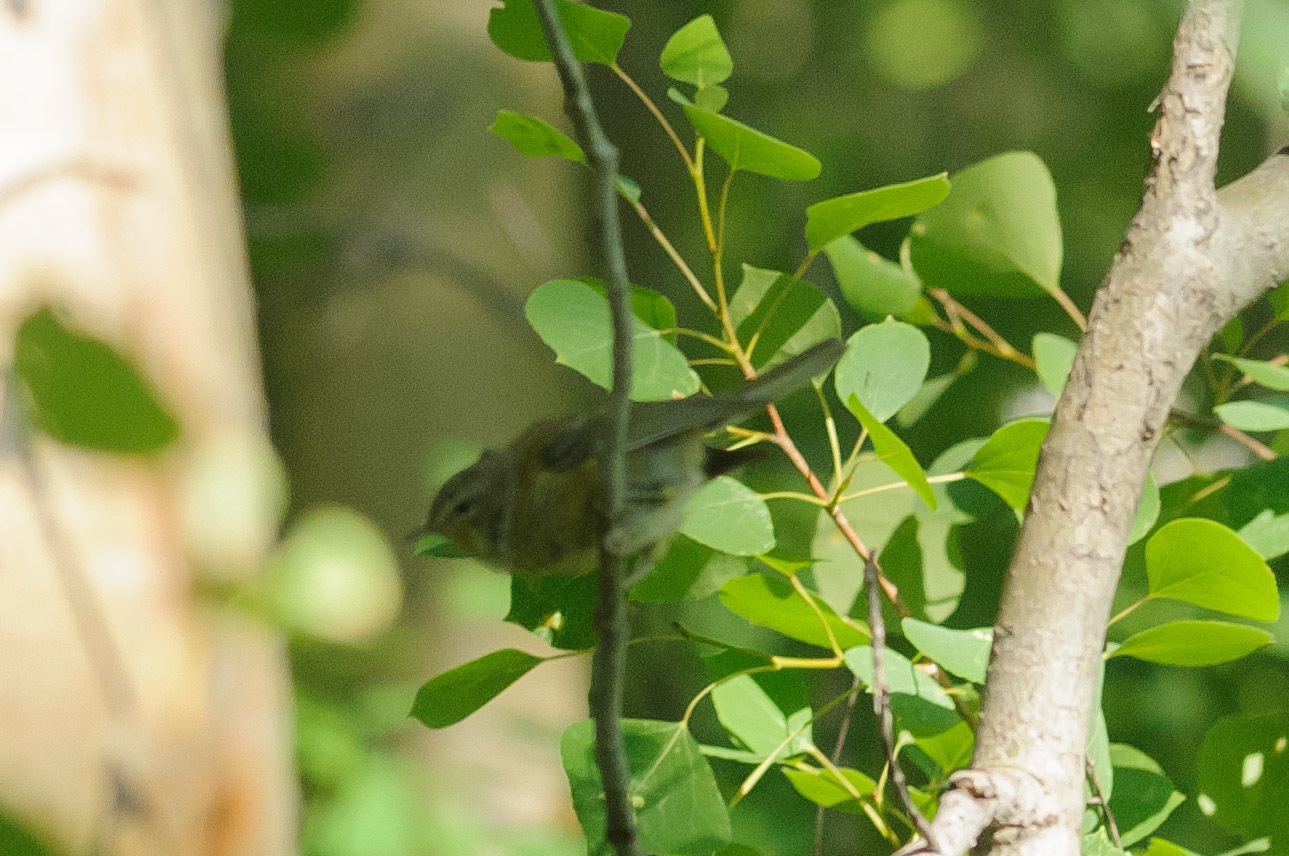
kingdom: Animalia
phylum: Chordata
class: Aves
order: Passeriformes
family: Parulidae
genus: Leiothlypis
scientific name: Leiothlypis celata
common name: Orange-crowned warbler
